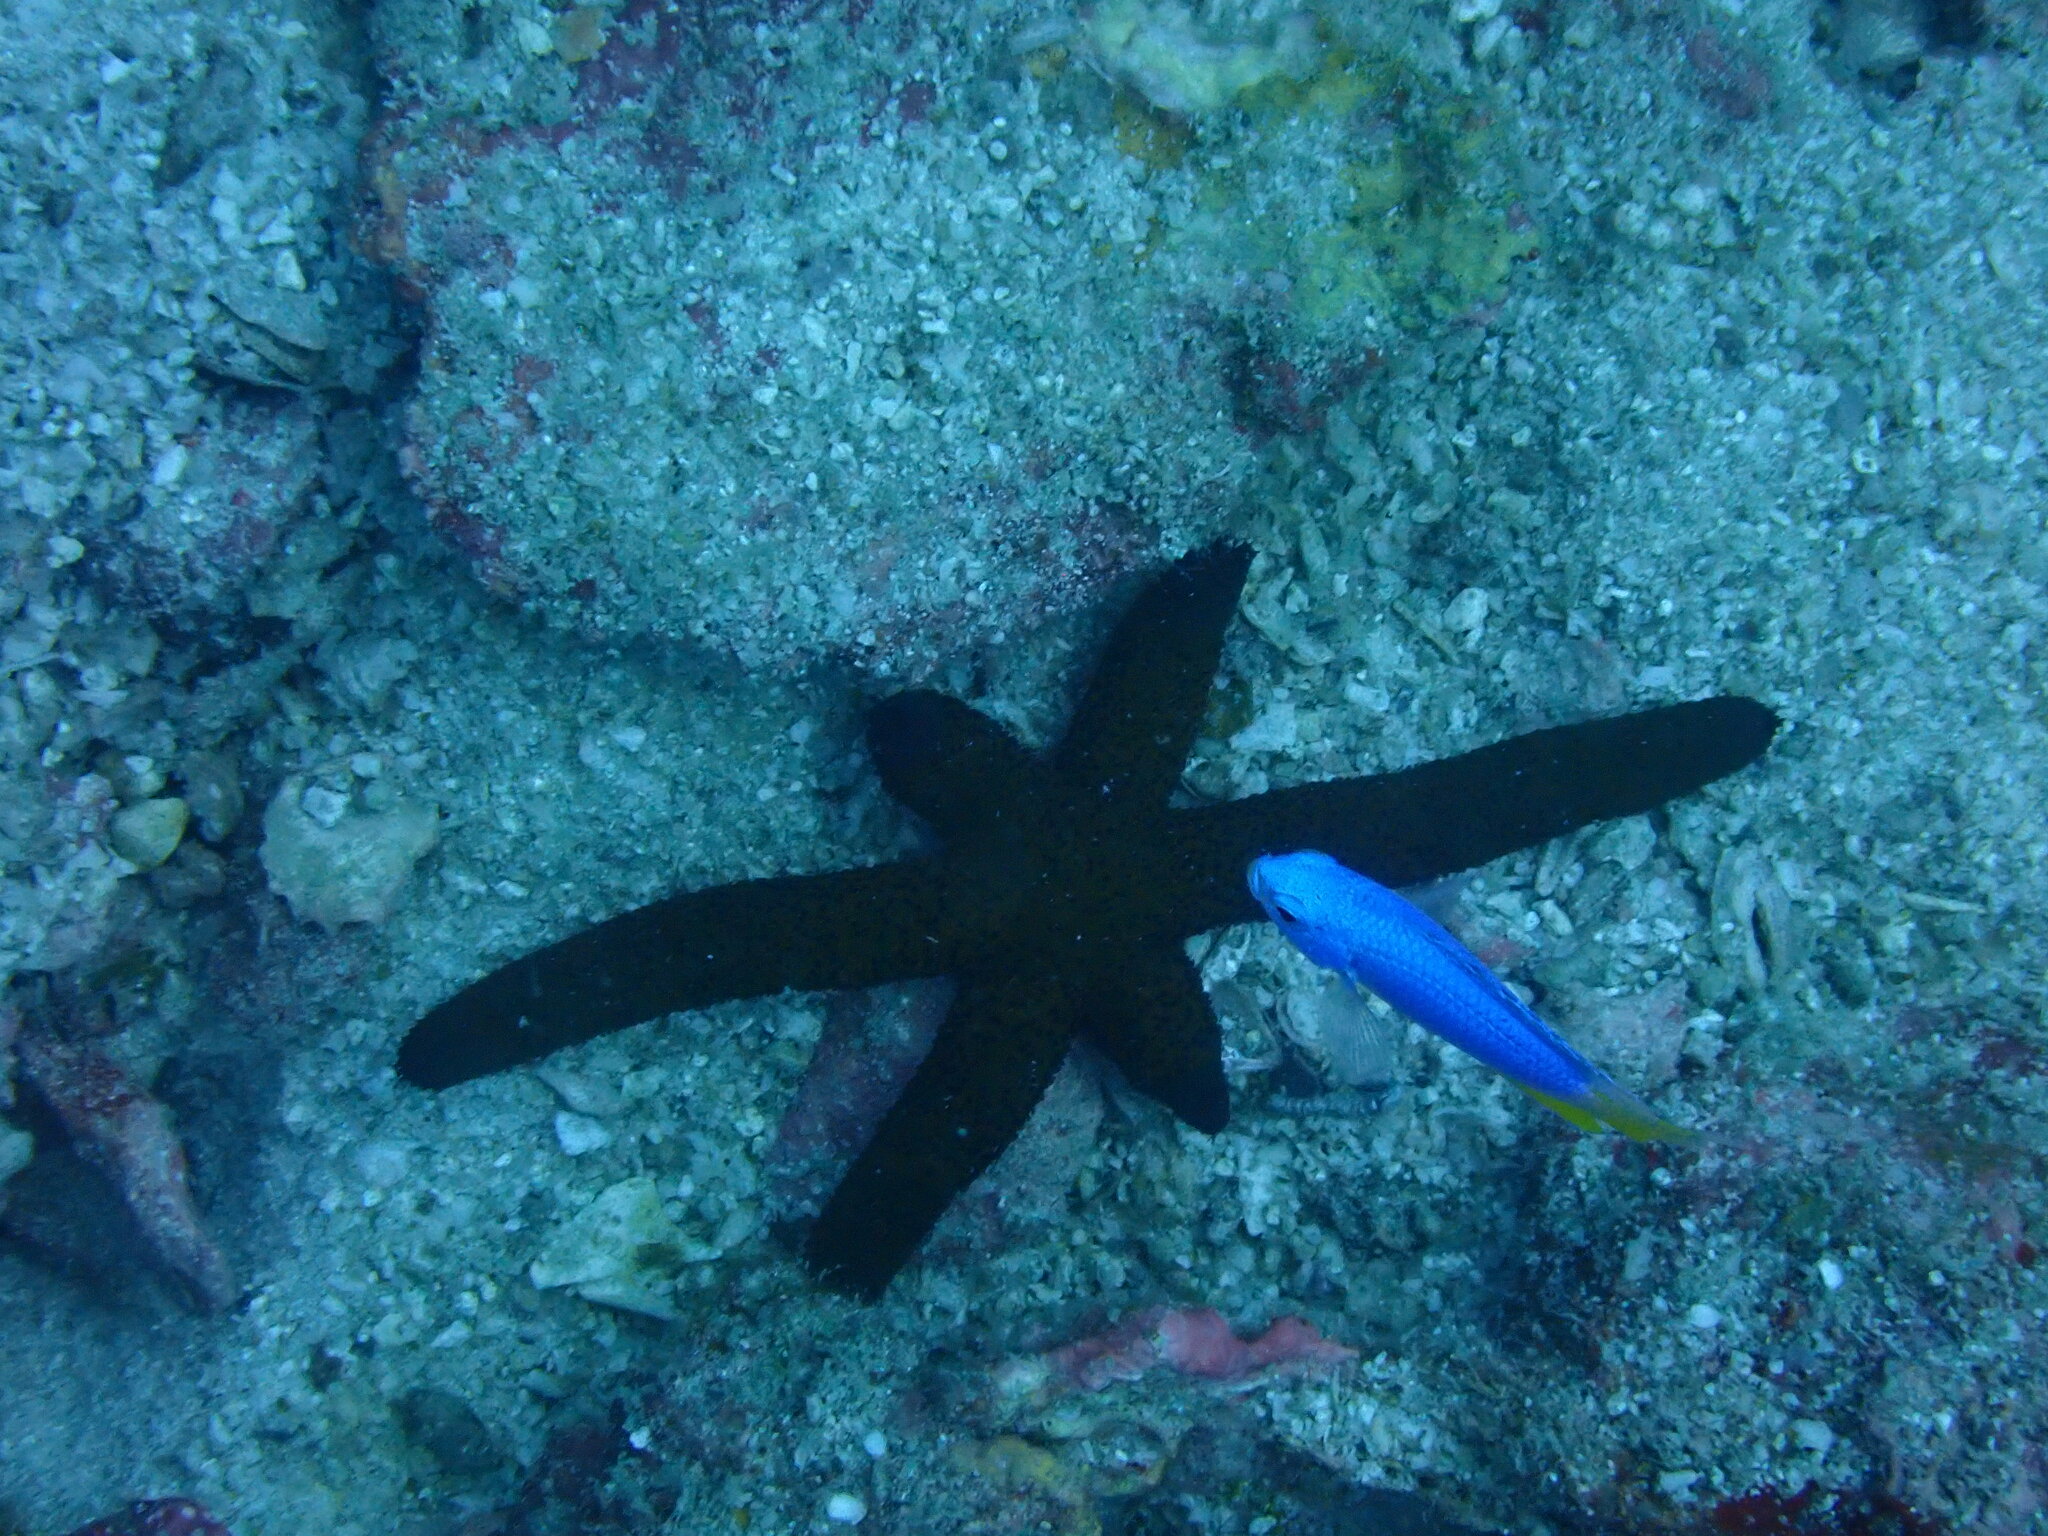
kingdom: Animalia
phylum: Echinodermata
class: Asteroidea
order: Spinulosida
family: Echinasteridae
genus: Echinaster
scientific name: Echinaster luzonicus
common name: Luzon seastar
